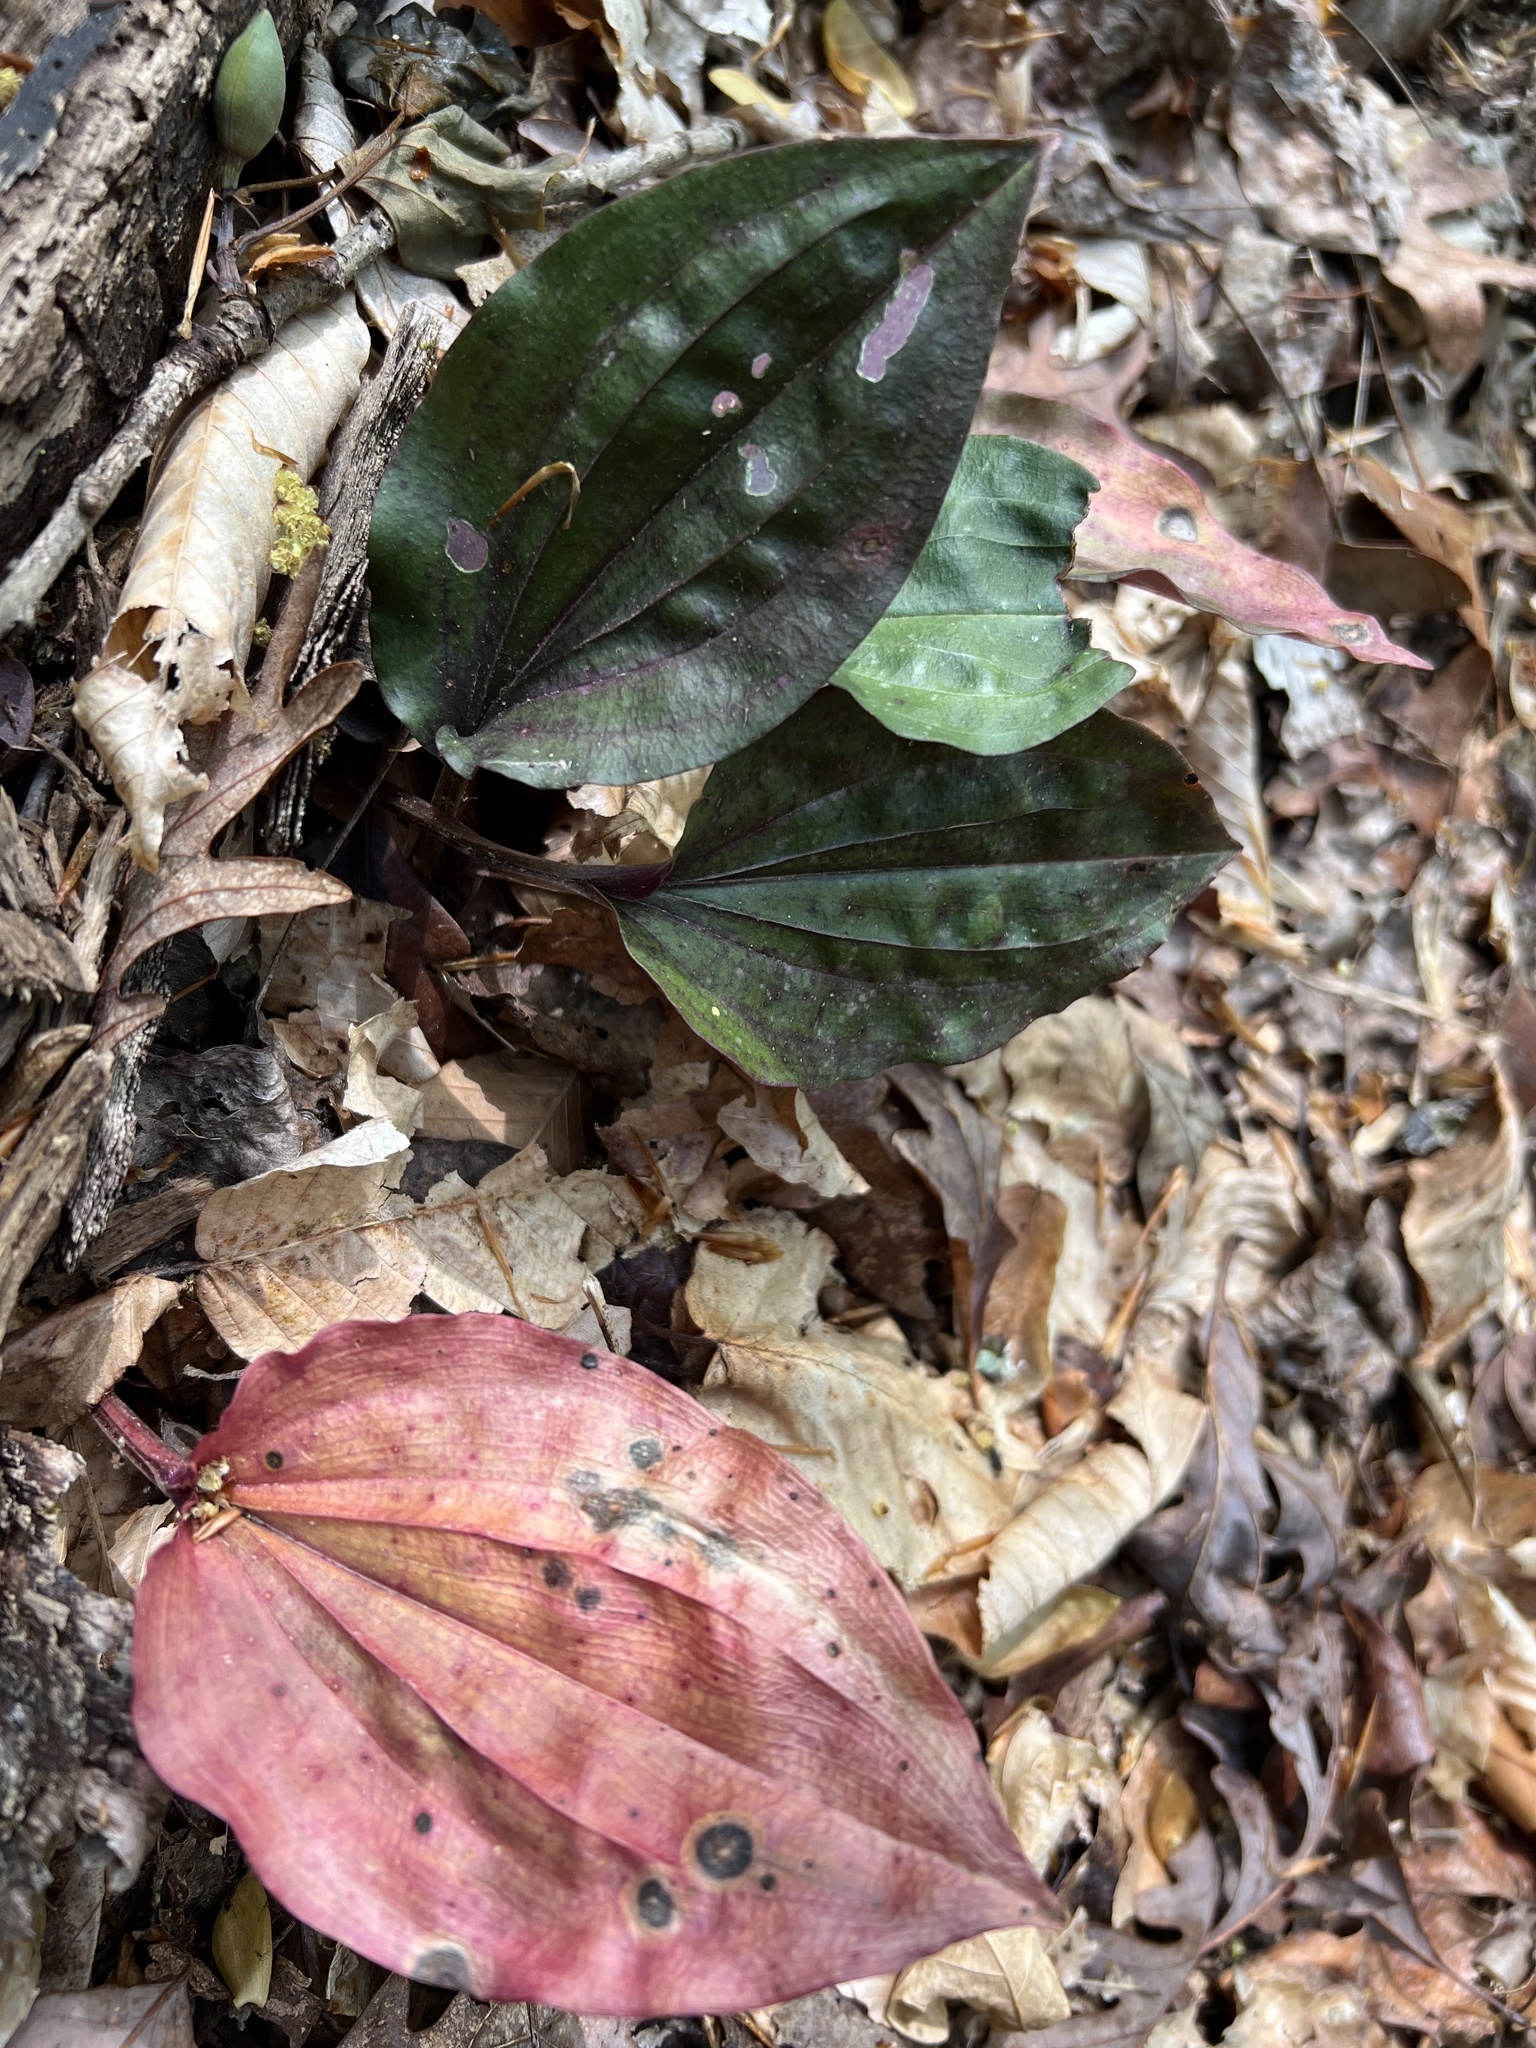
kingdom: Plantae
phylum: Tracheophyta
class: Liliopsida
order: Asparagales
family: Orchidaceae
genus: Tipularia
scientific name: Tipularia discolor
